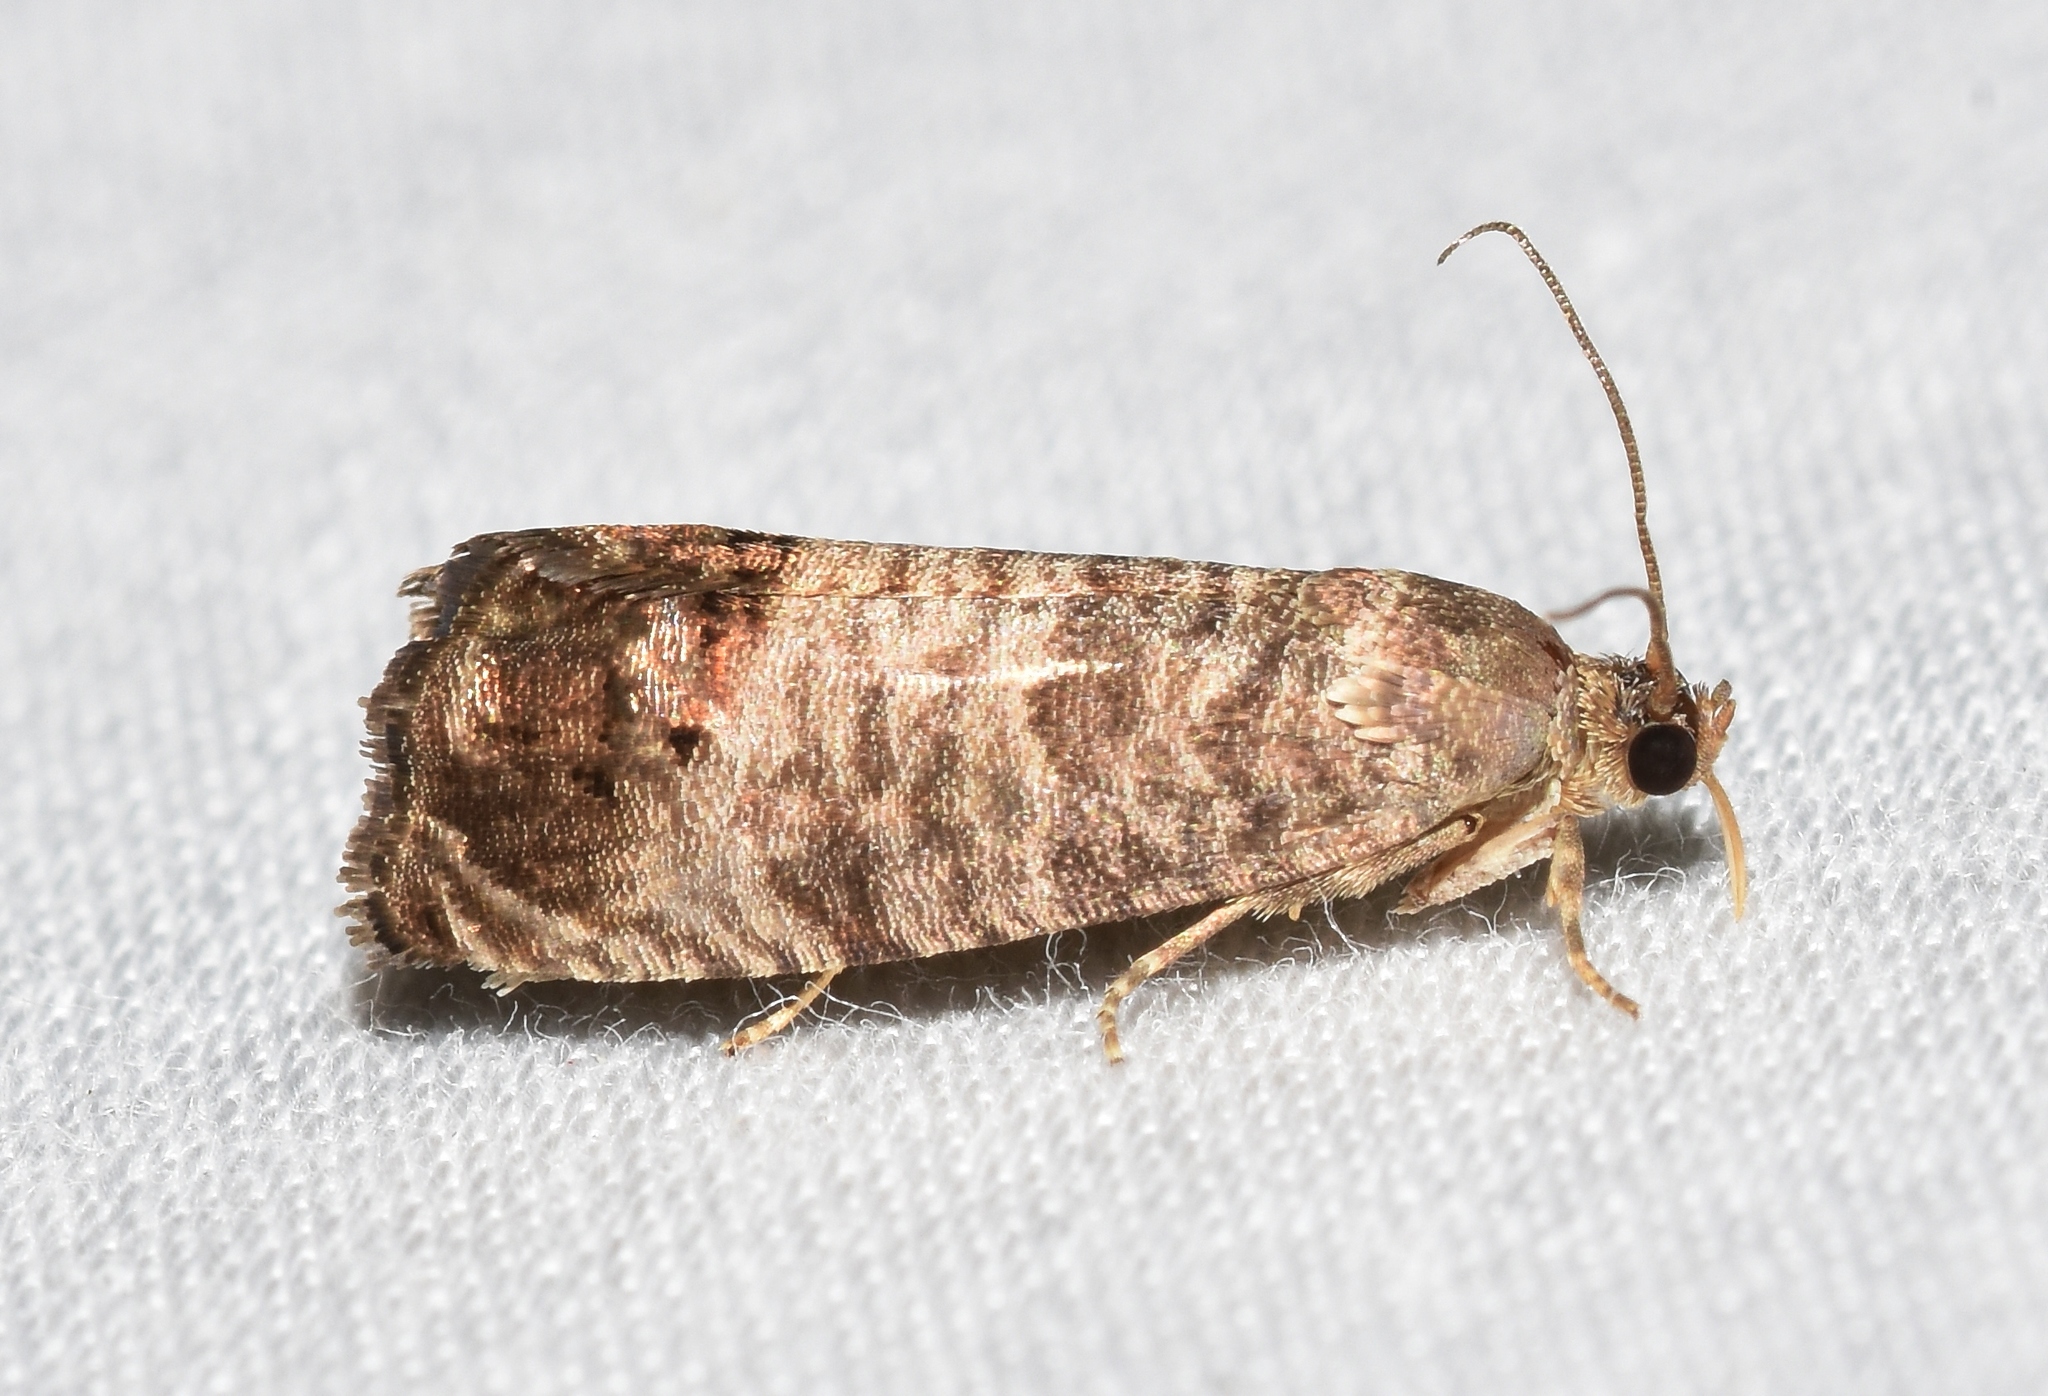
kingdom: Animalia
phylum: Arthropoda
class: Insecta
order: Lepidoptera
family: Tortricidae
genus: Cydia
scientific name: Cydia pomonella
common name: Codling moth
